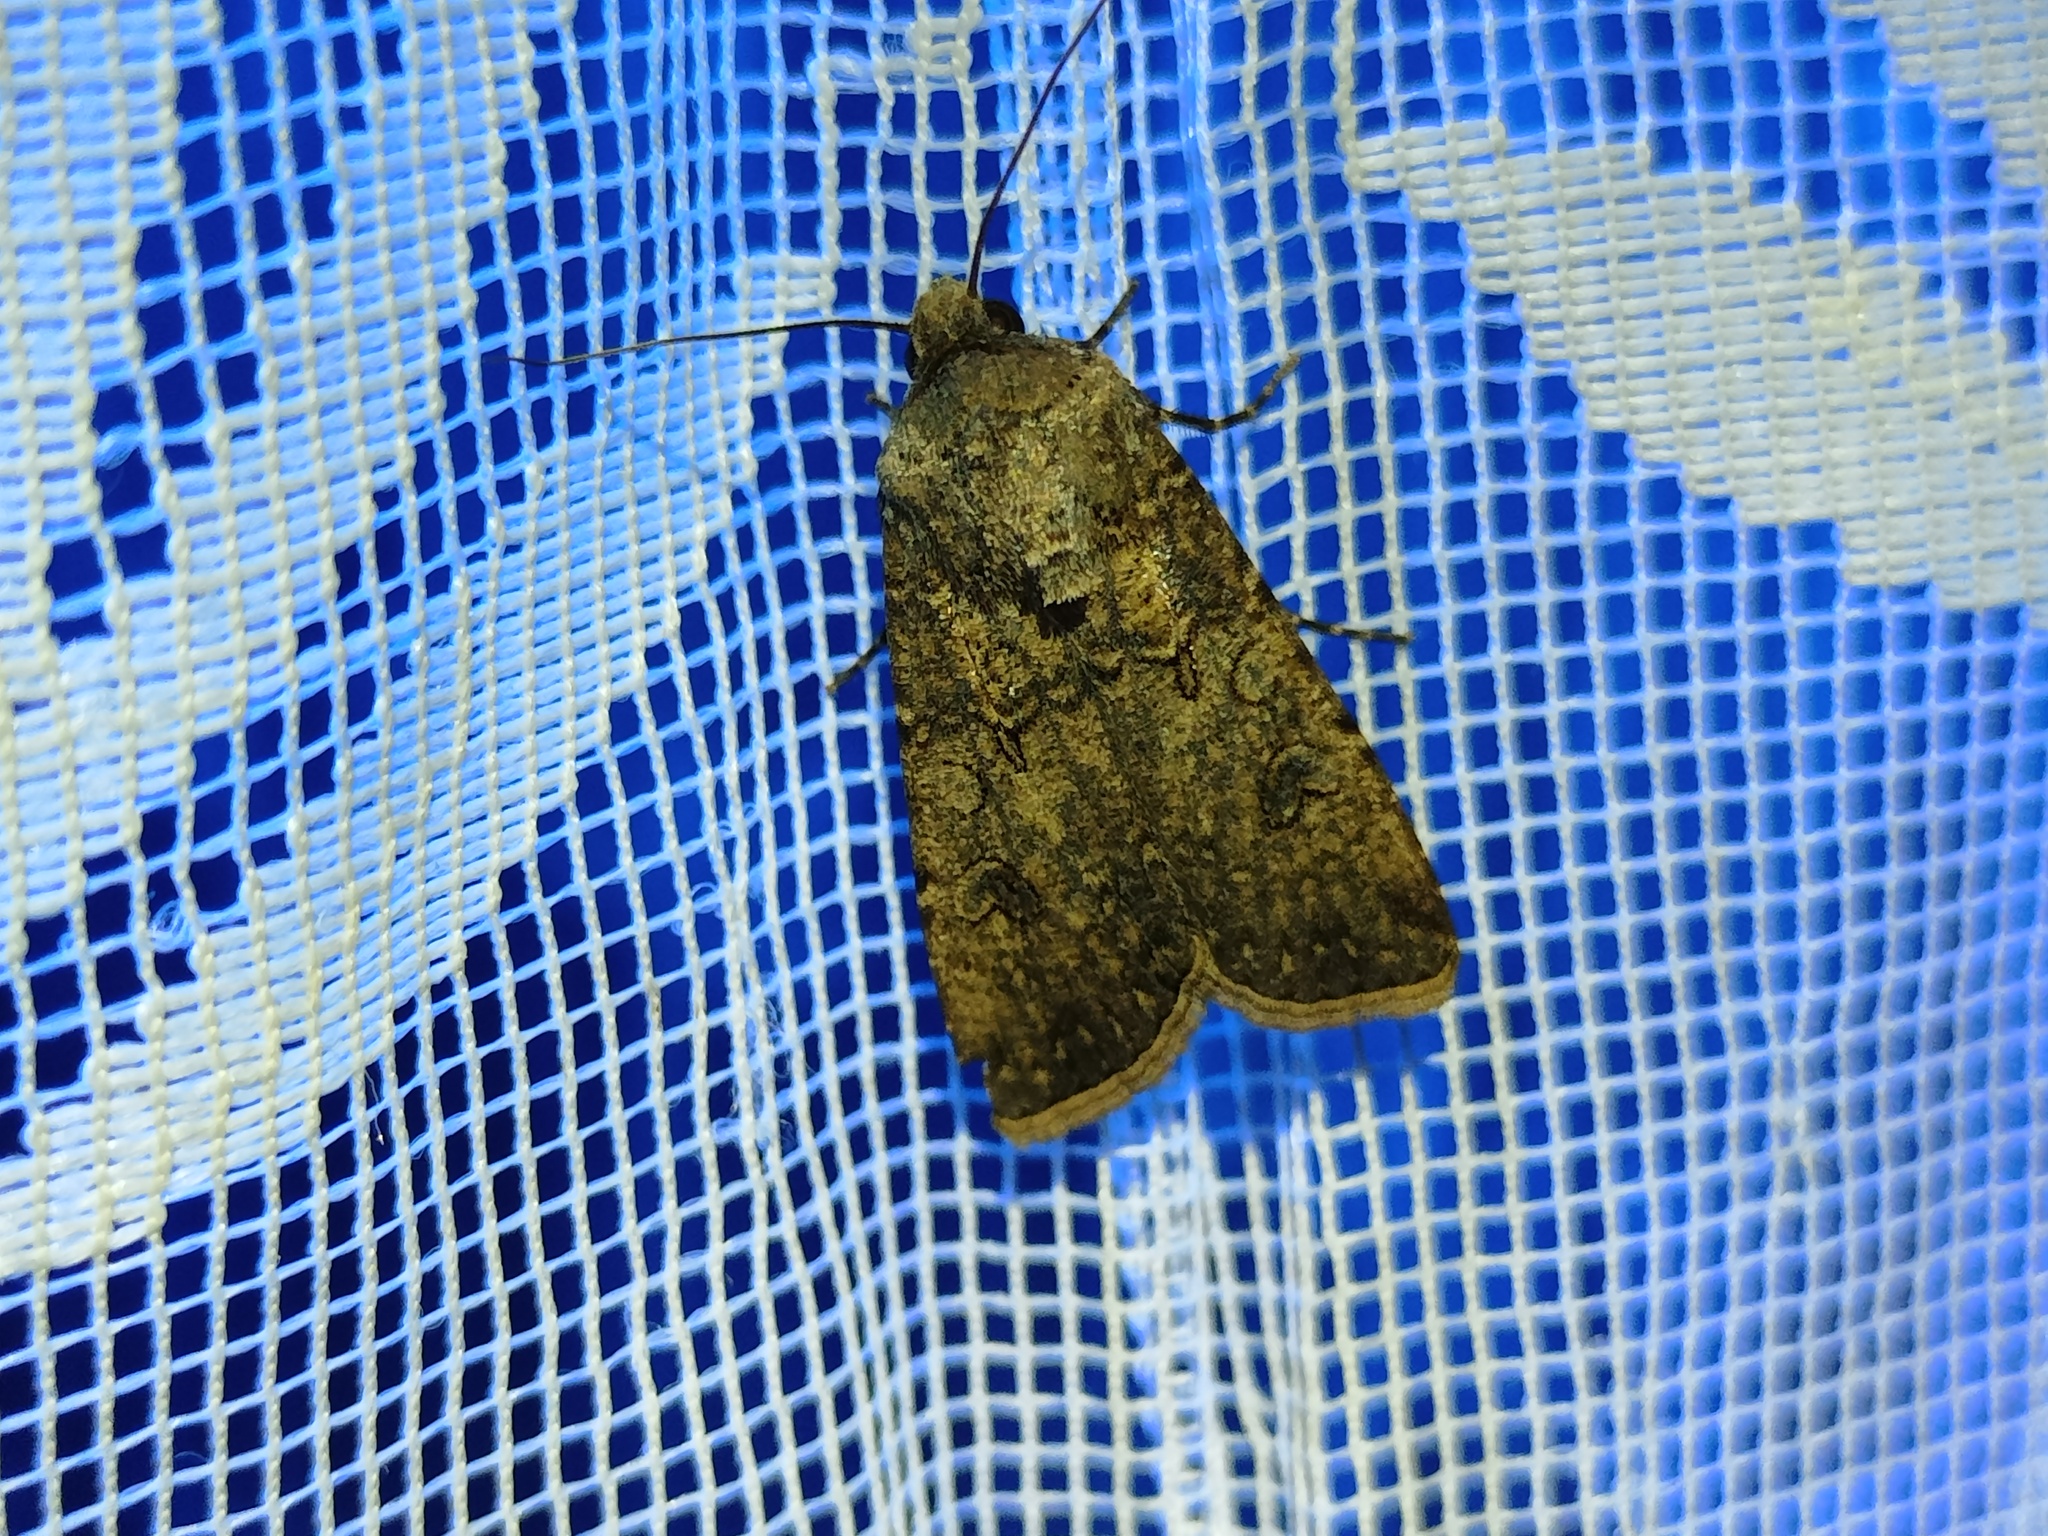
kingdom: Animalia
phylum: Arthropoda
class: Insecta
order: Lepidoptera
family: Noctuidae
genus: Agrotis
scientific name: Agrotis segetum
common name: Turnip moth
